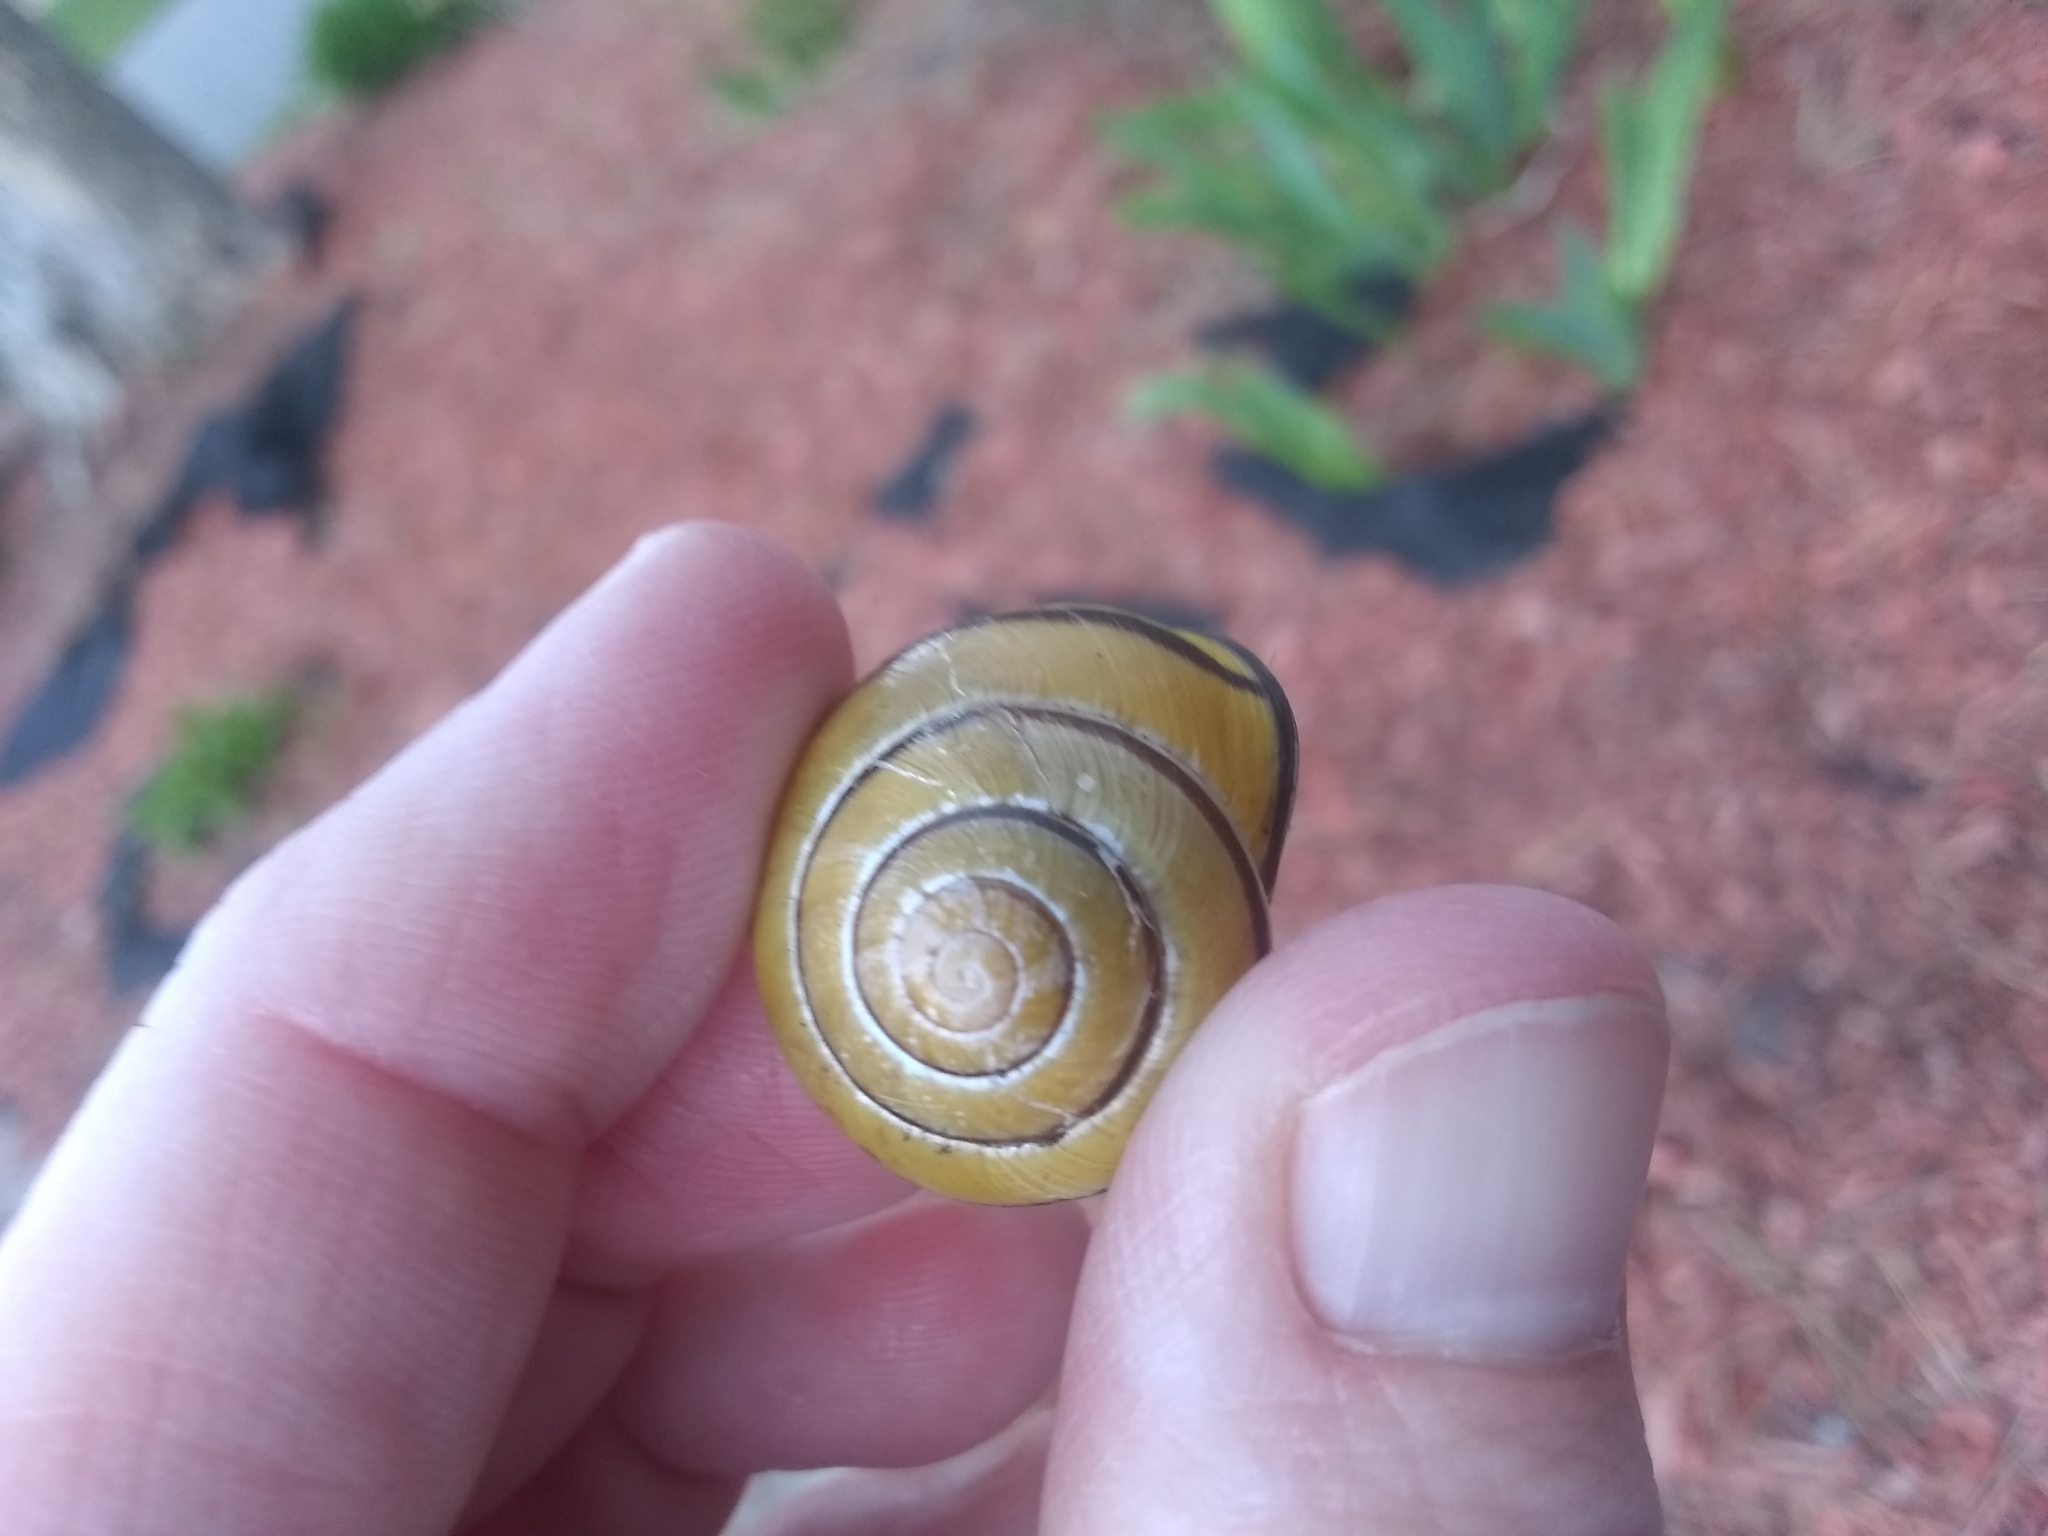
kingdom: Animalia
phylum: Mollusca
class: Gastropoda
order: Stylommatophora
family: Helicidae
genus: Cepaea
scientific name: Cepaea nemoralis
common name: Grovesnail
